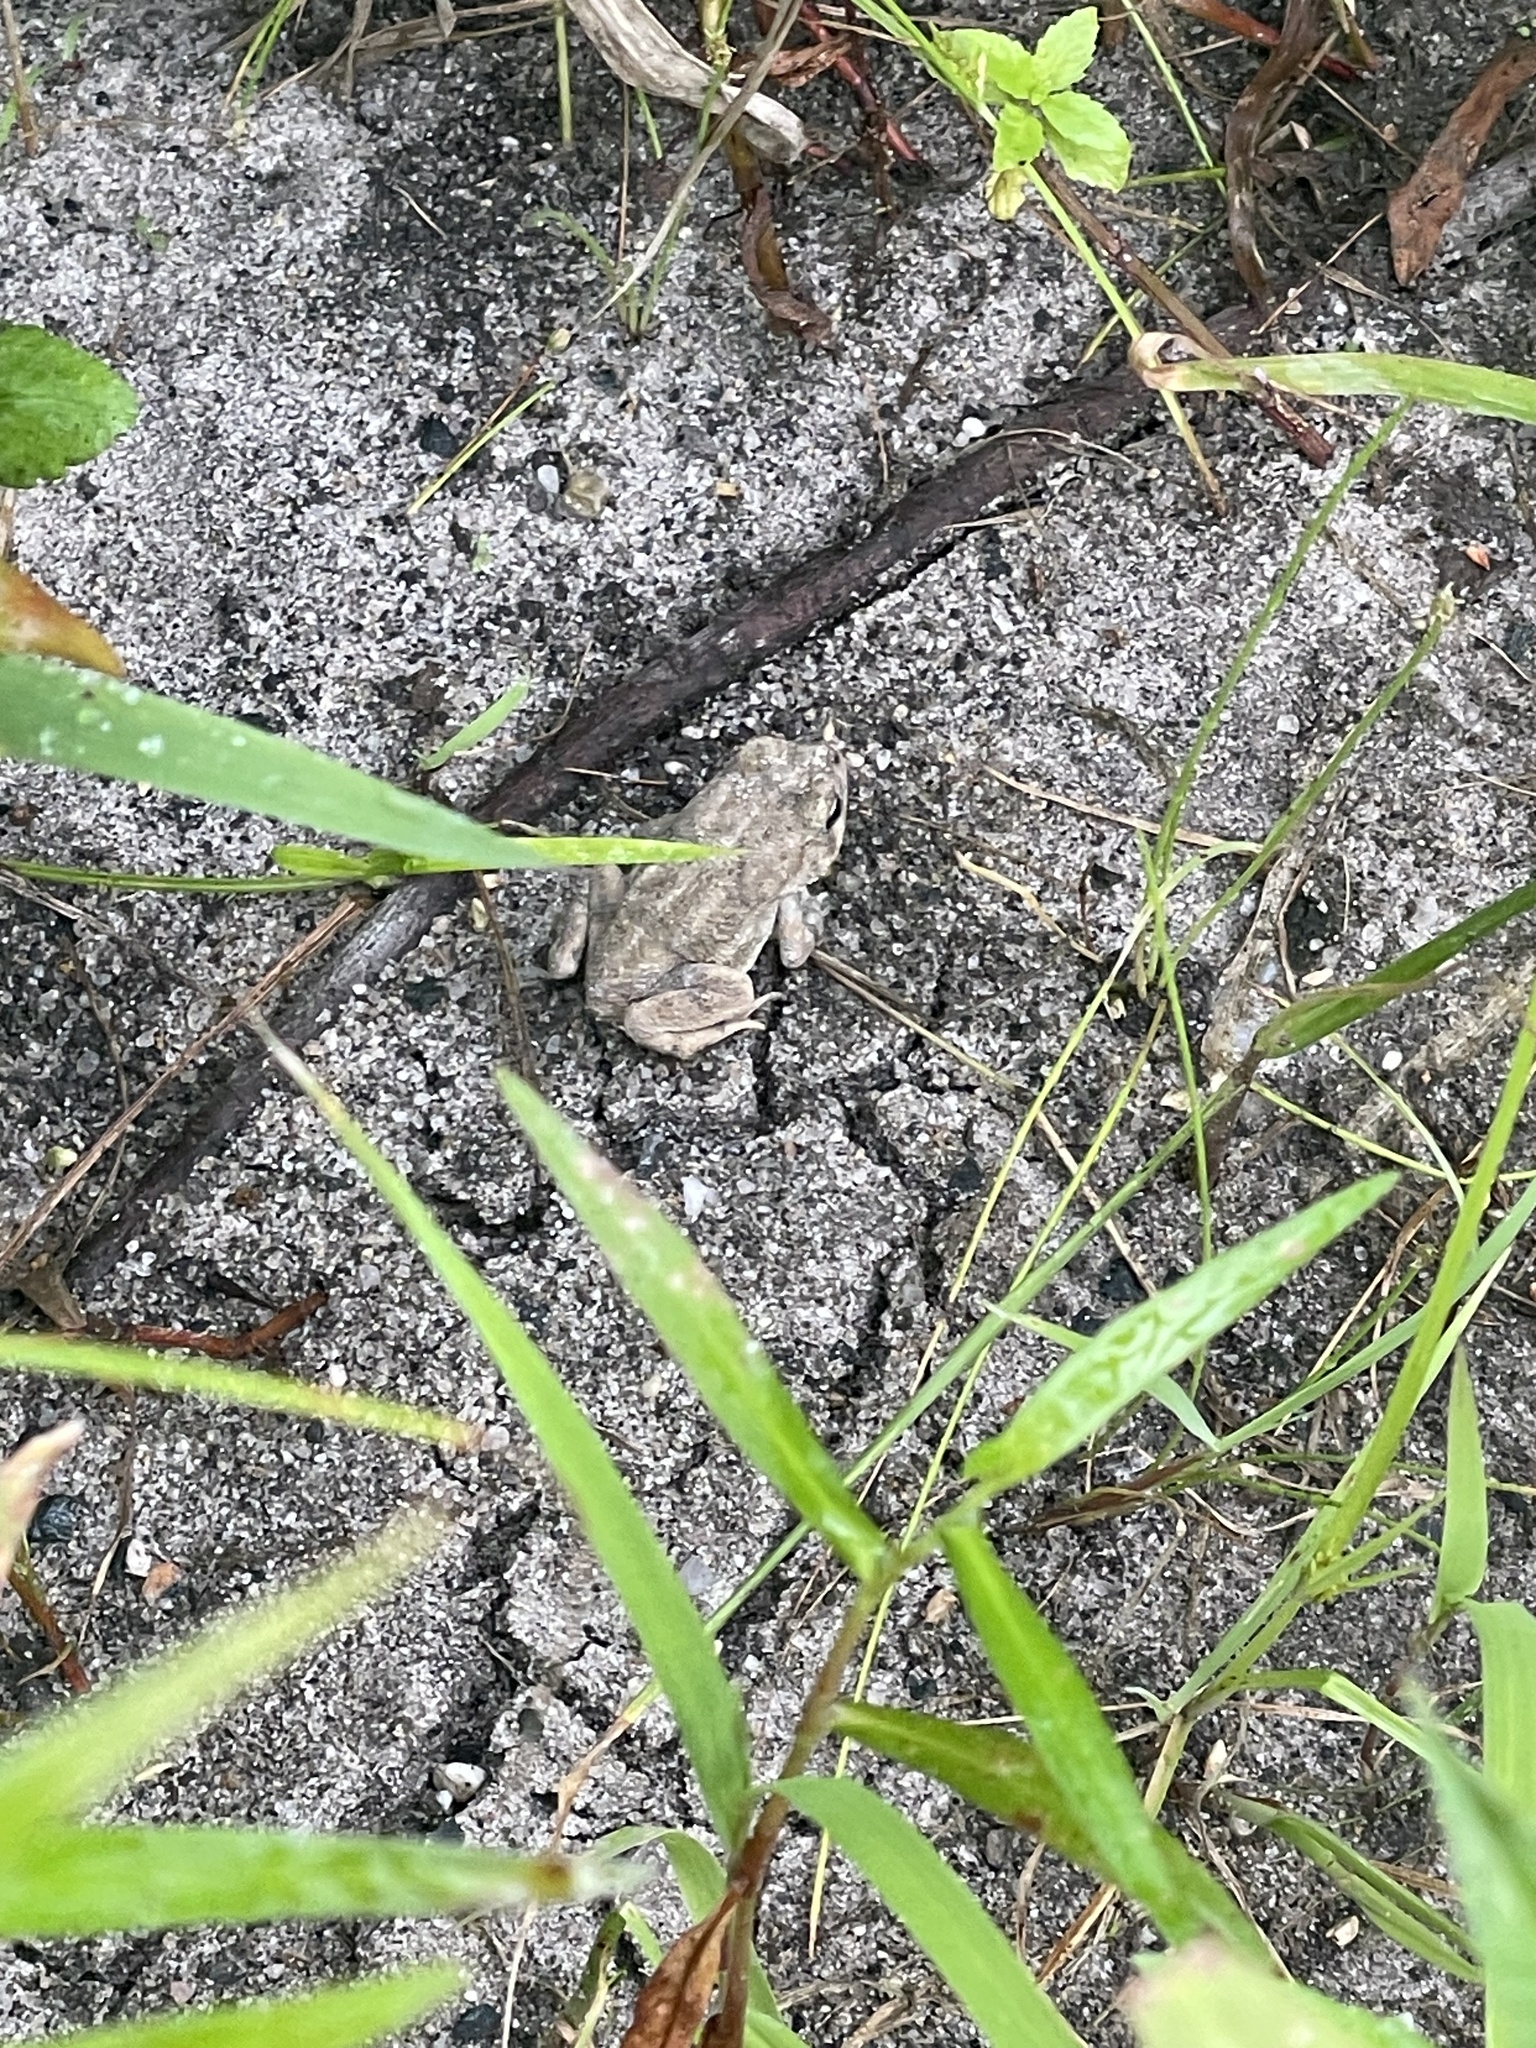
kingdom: Animalia
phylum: Chordata
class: Amphibia
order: Anura
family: Bufonidae
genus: Anaxyrus
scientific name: Anaxyrus fowleri
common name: Fowler's toad
